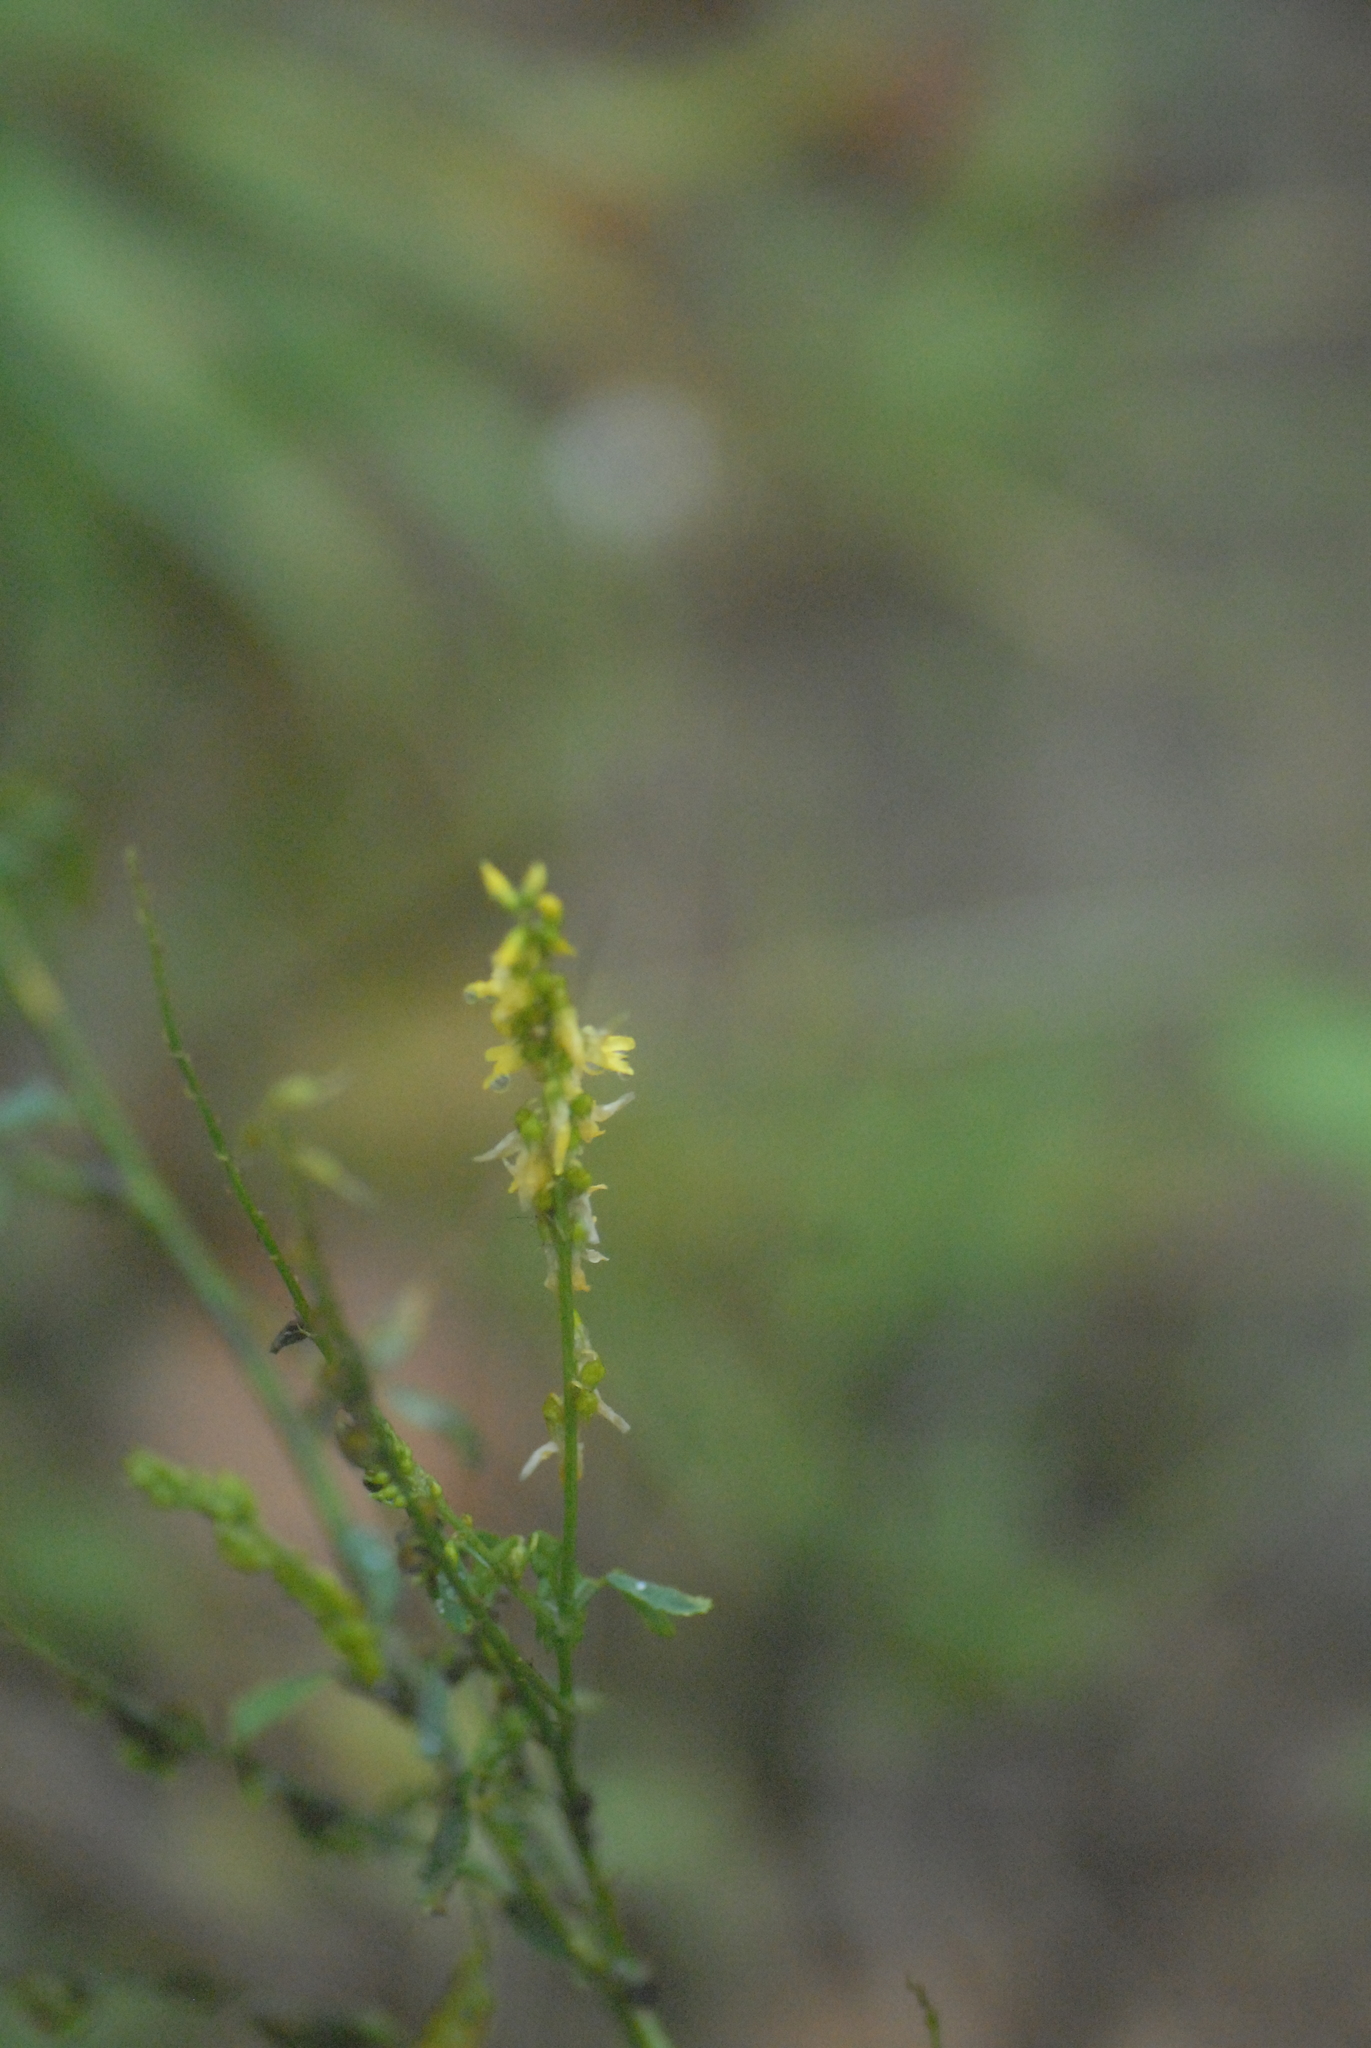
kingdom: Plantae
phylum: Tracheophyta
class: Magnoliopsida
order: Fabales
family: Fabaceae
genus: Melilotus
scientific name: Melilotus officinalis
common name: Sweetclover
